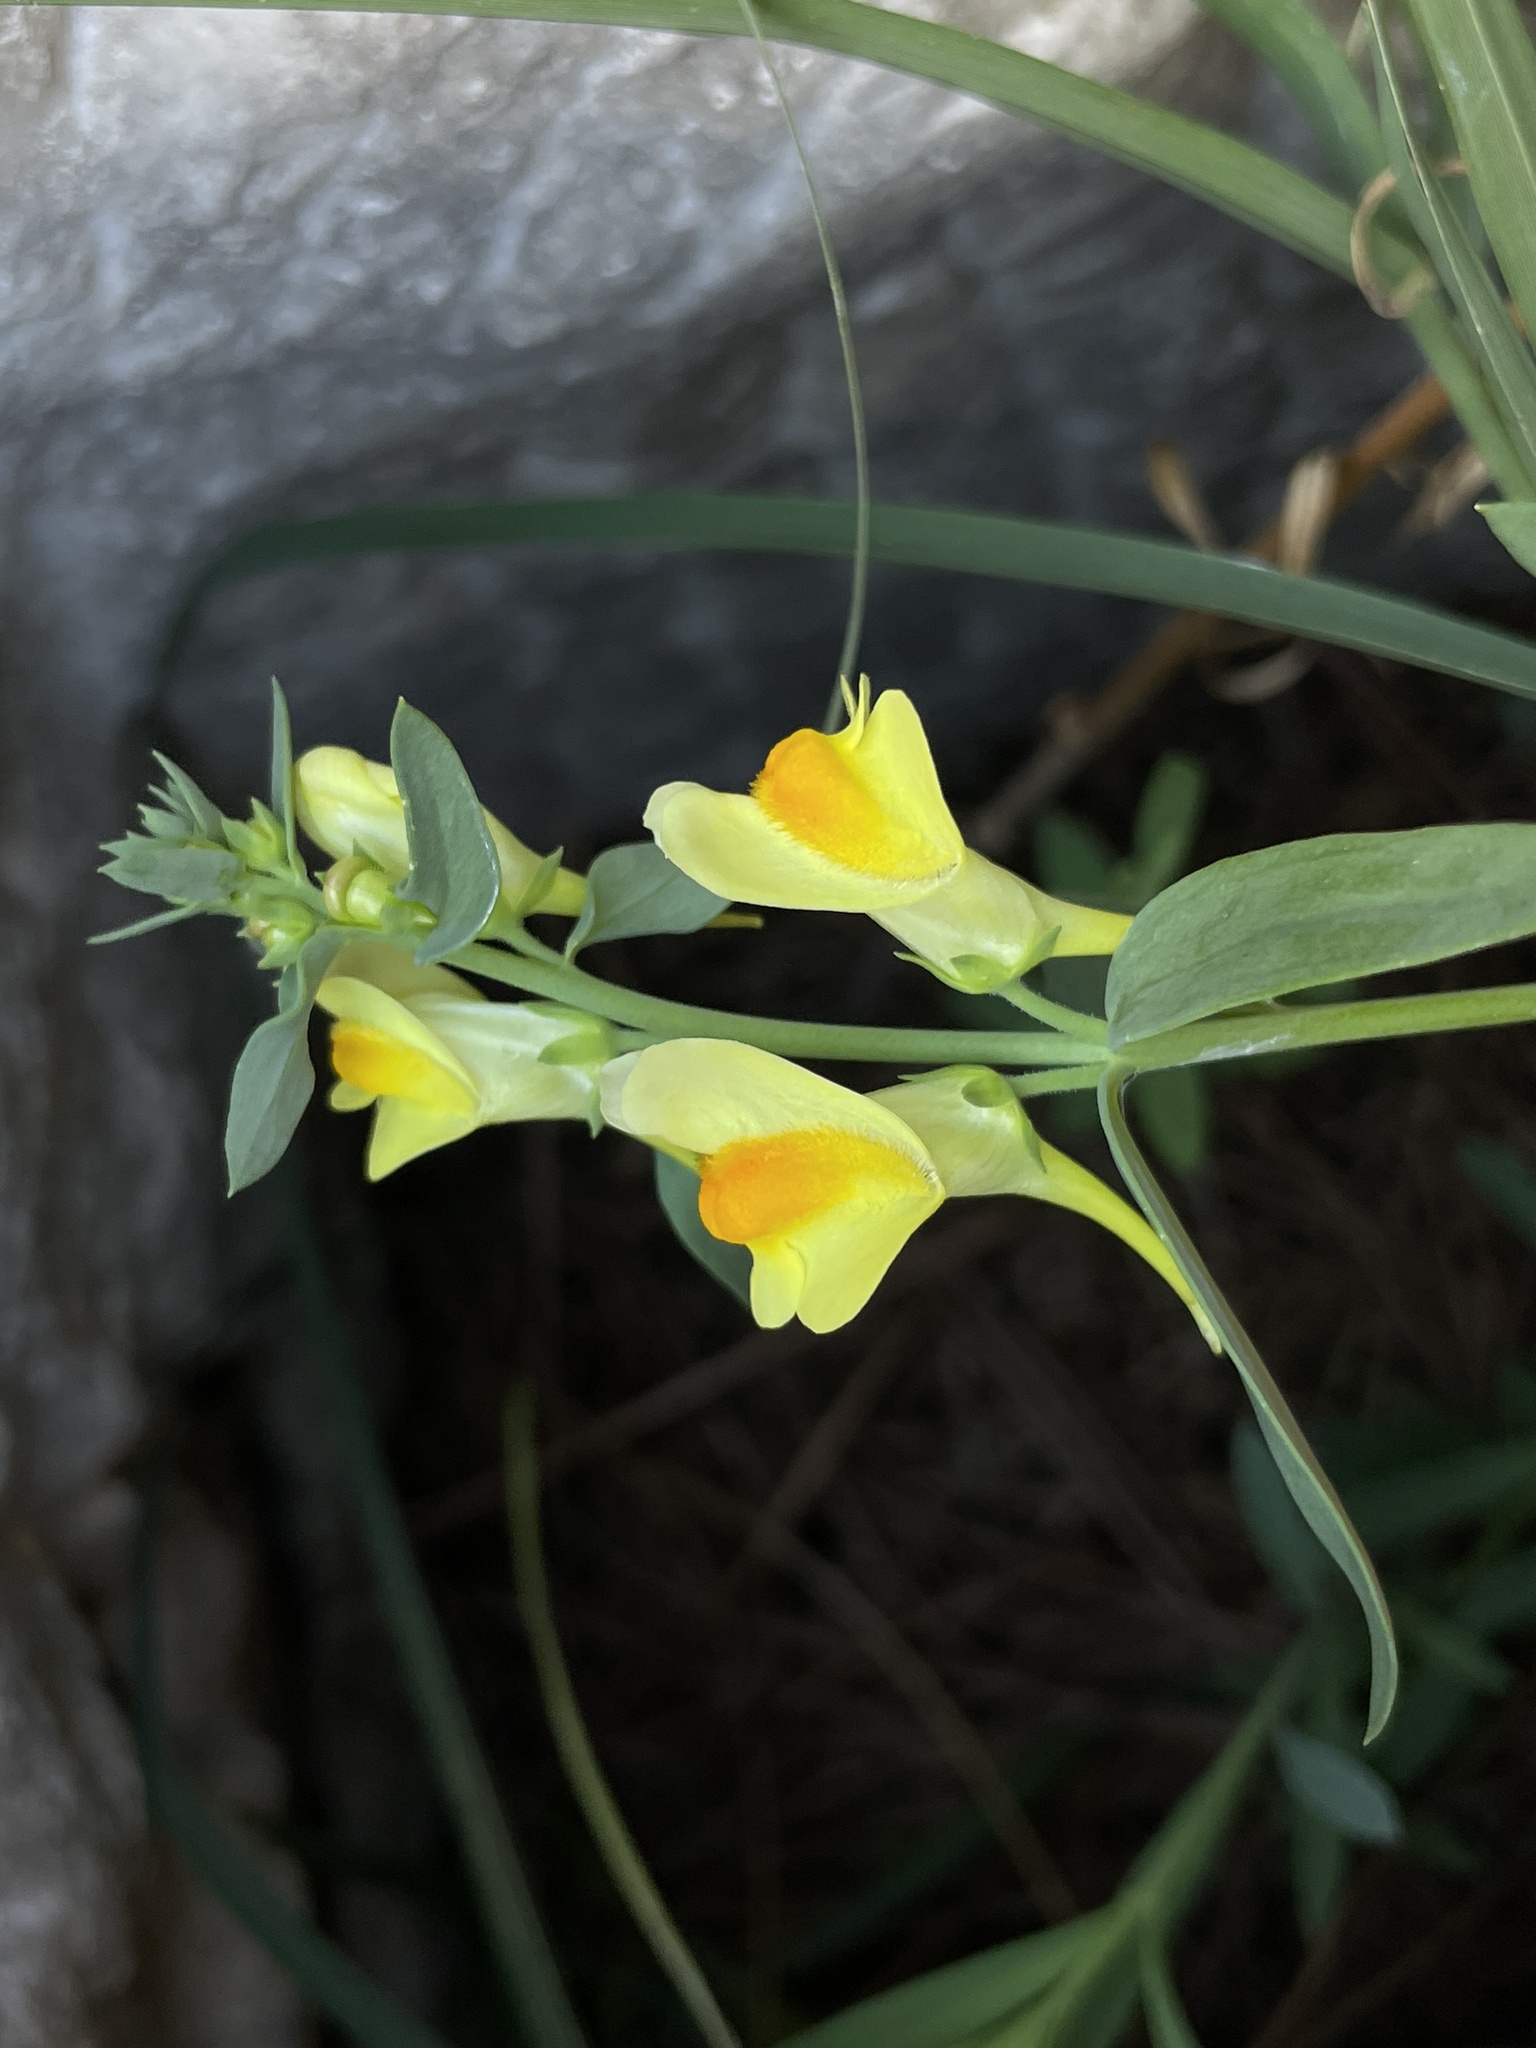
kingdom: Plantae
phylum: Tracheophyta
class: Magnoliopsida
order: Lamiales
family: Plantaginaceae
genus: Linaria
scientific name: Linaria vulgaris
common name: Butter and eggs
